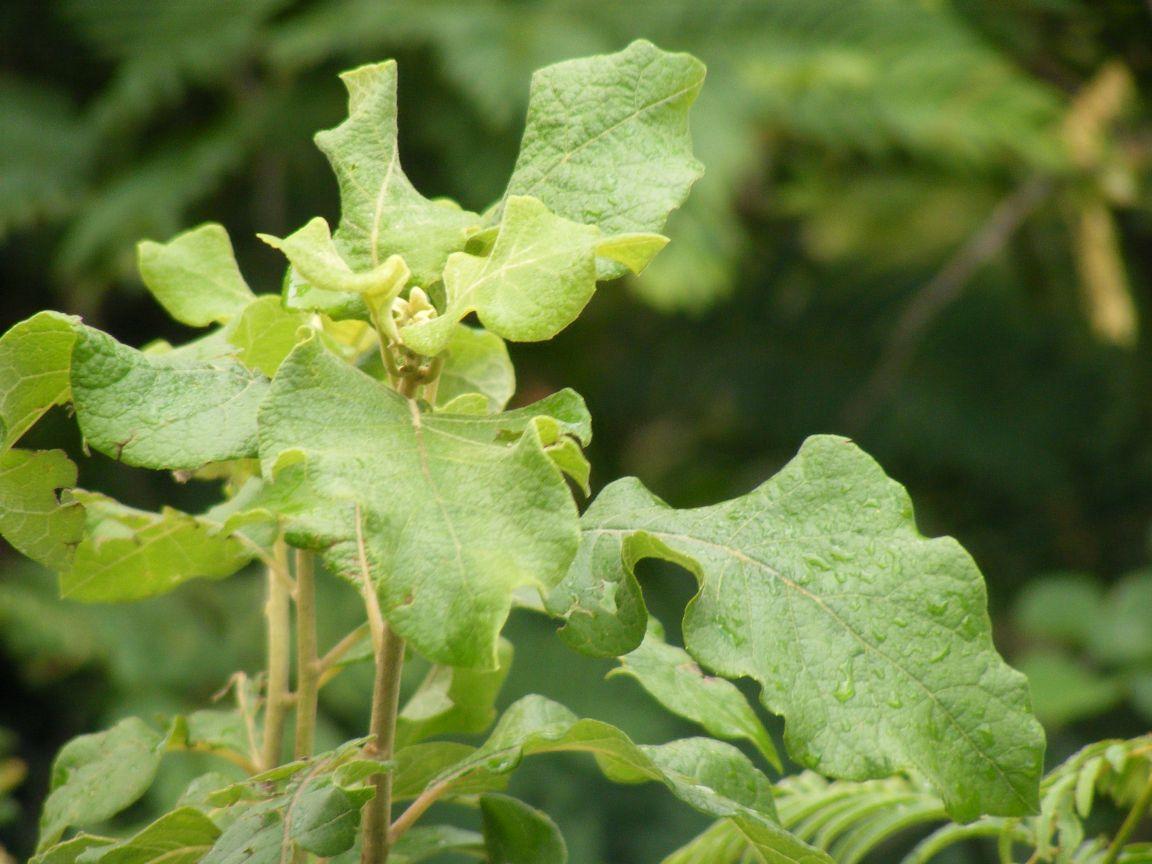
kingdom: Plantae
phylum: Tracheophyta
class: Magnoliopsida
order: Asterales
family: Asteraceae
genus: Vernonia
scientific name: Vernonia colorata
